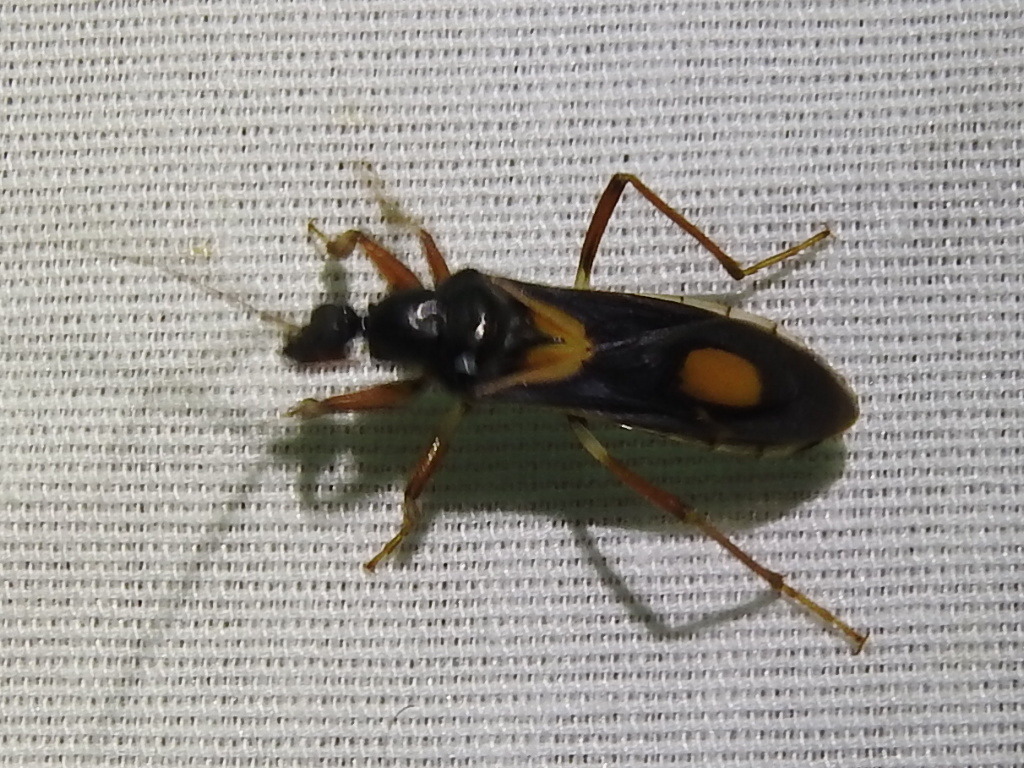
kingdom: Animalia
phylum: Arthropoda
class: Insecta
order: Hemiptera
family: Reduviidae
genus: Rasahus
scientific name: Rasahus hamatus
